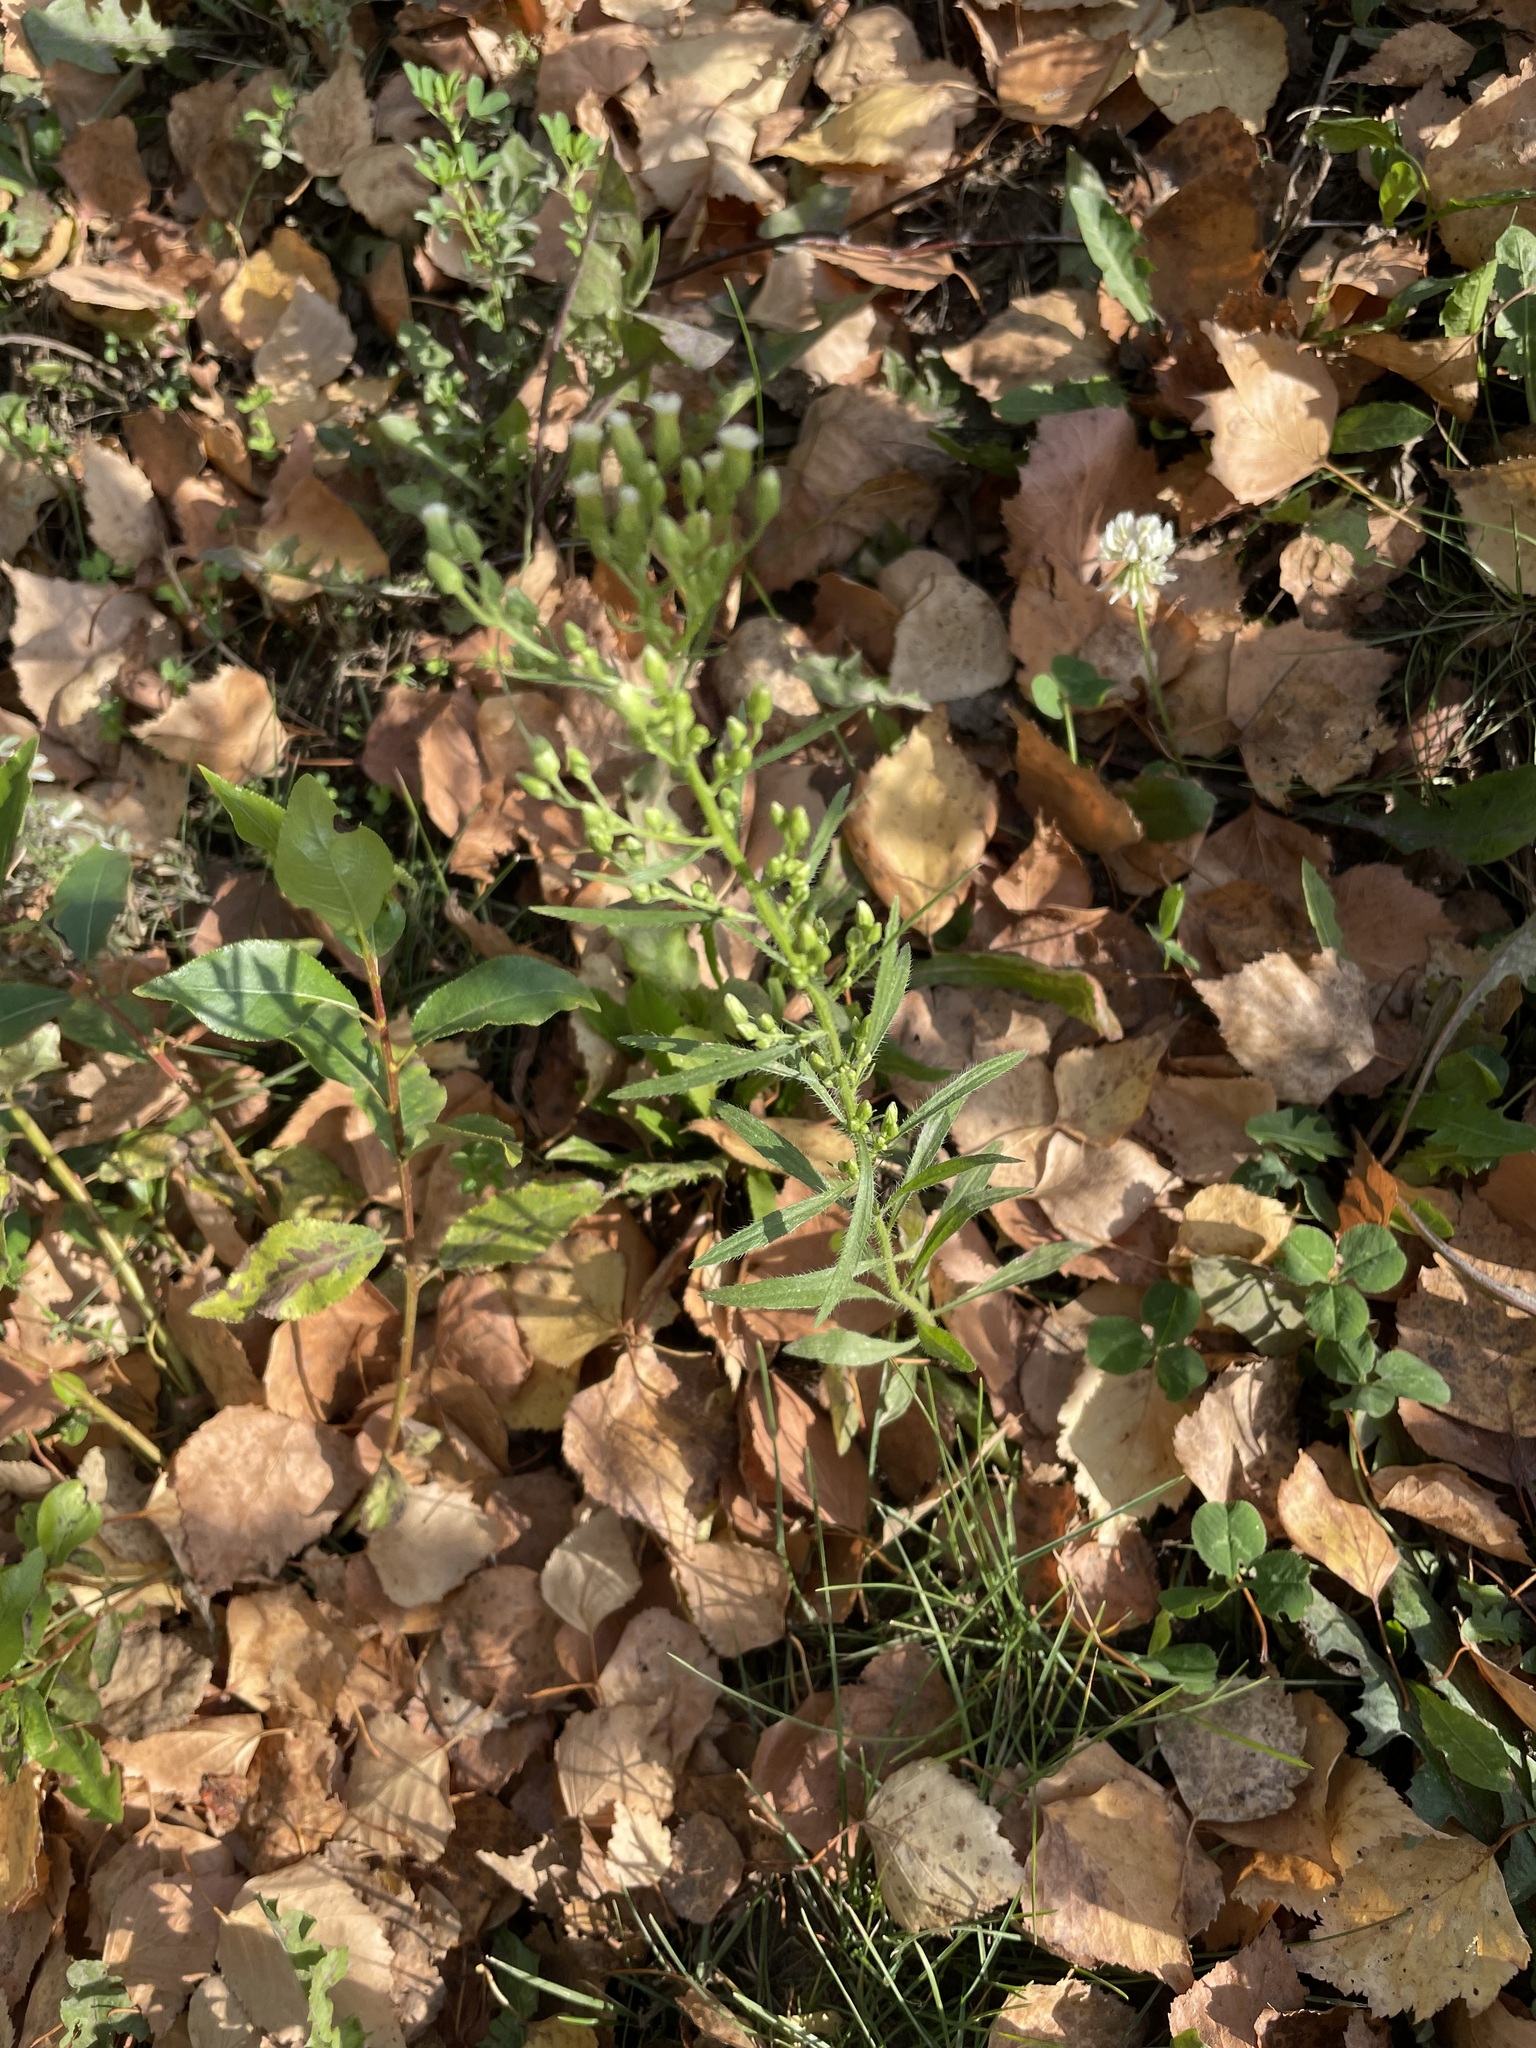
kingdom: Plantae
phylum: Tracheophyta
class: Magnoliopsida
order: Asterales
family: Asteraceae
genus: Erigeron
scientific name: Erigeron canadensis
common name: Canadian fleabane
